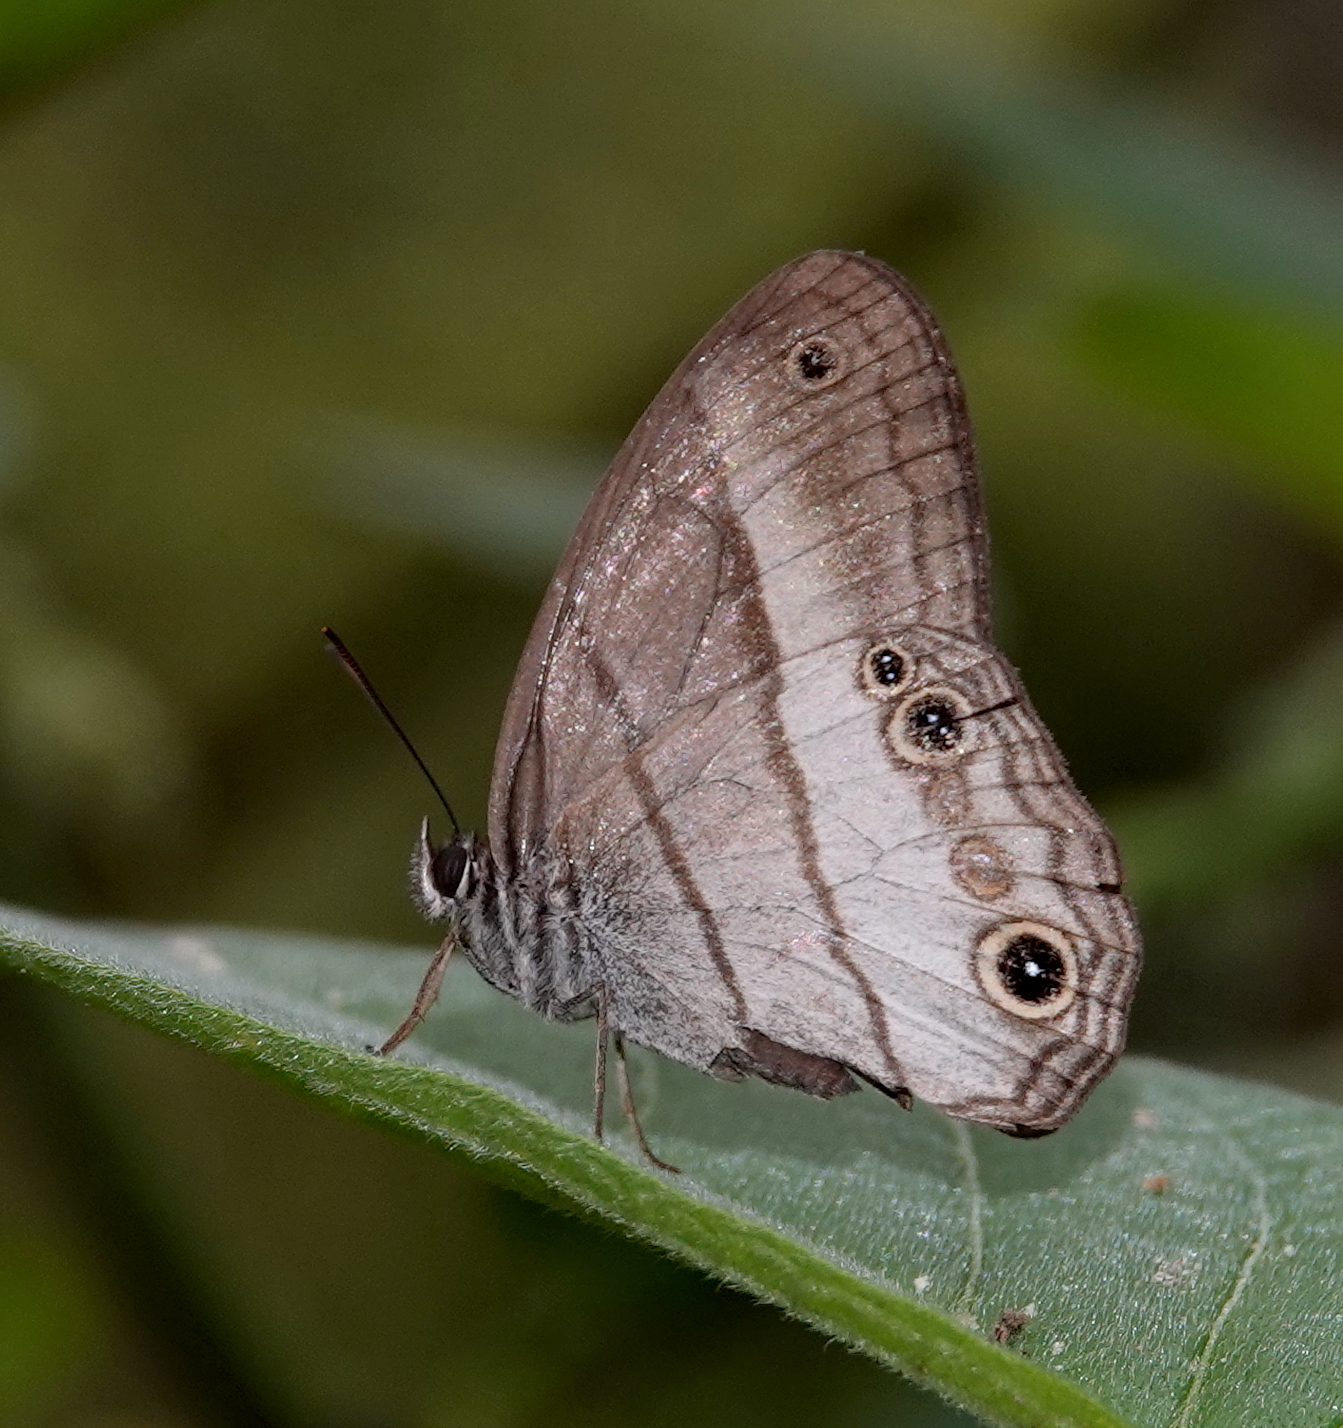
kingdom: Animalia
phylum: Arthropoda
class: Insecta
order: Lepidoptera
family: Nymphalidae
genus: Euptychoides
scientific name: Euptychoides saturnus
